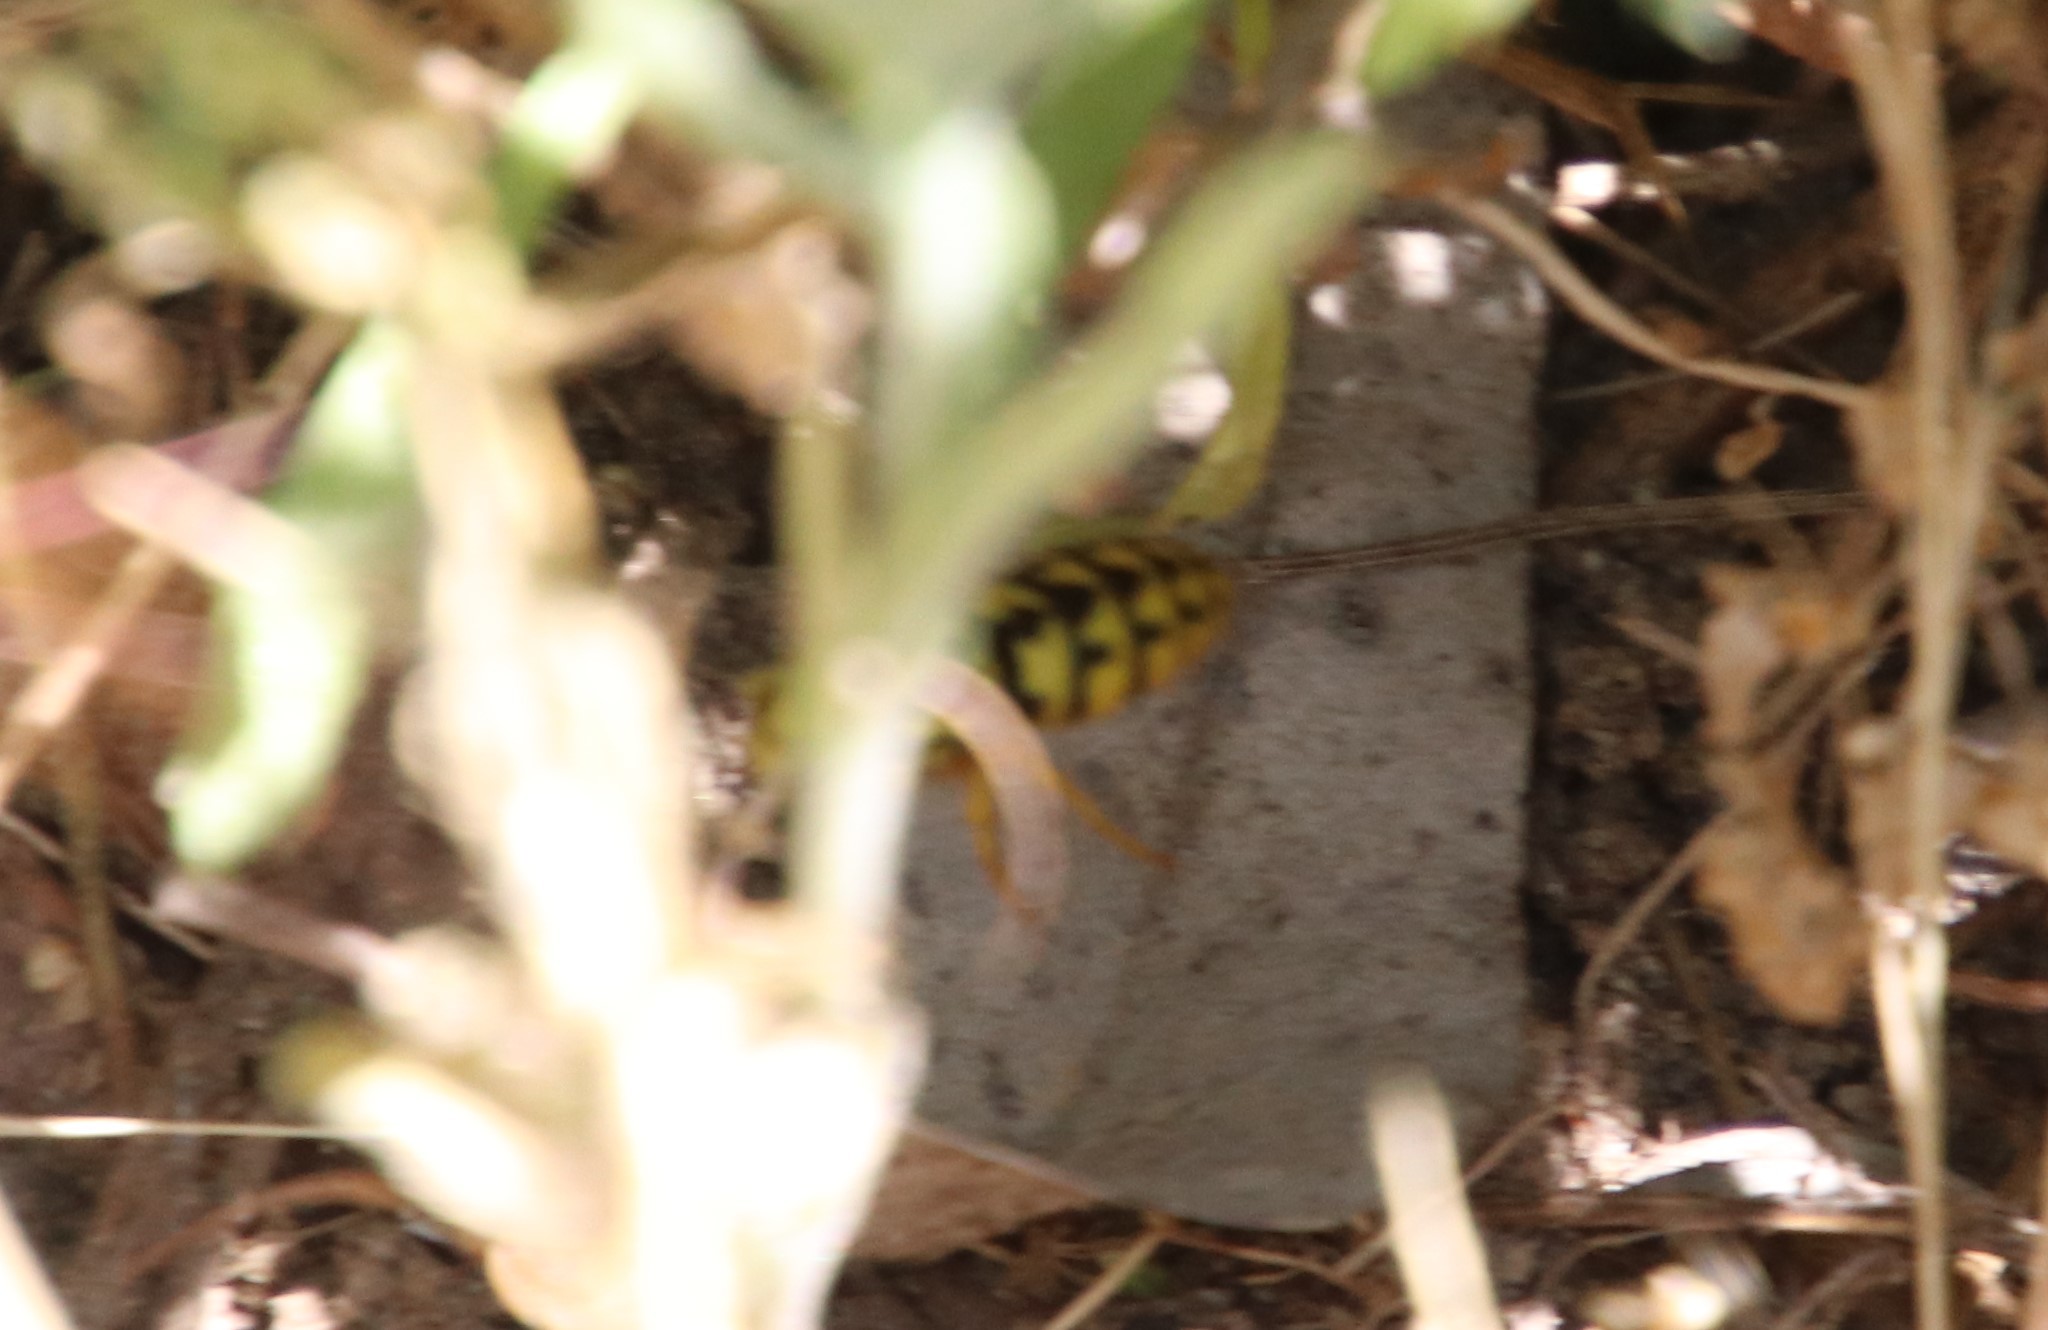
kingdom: Animalia
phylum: Arthropoda
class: Insecta
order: Hymenoptera
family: Vespidae
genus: Vespula
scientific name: Vespula pensylvanica
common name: Western yellowjacket
